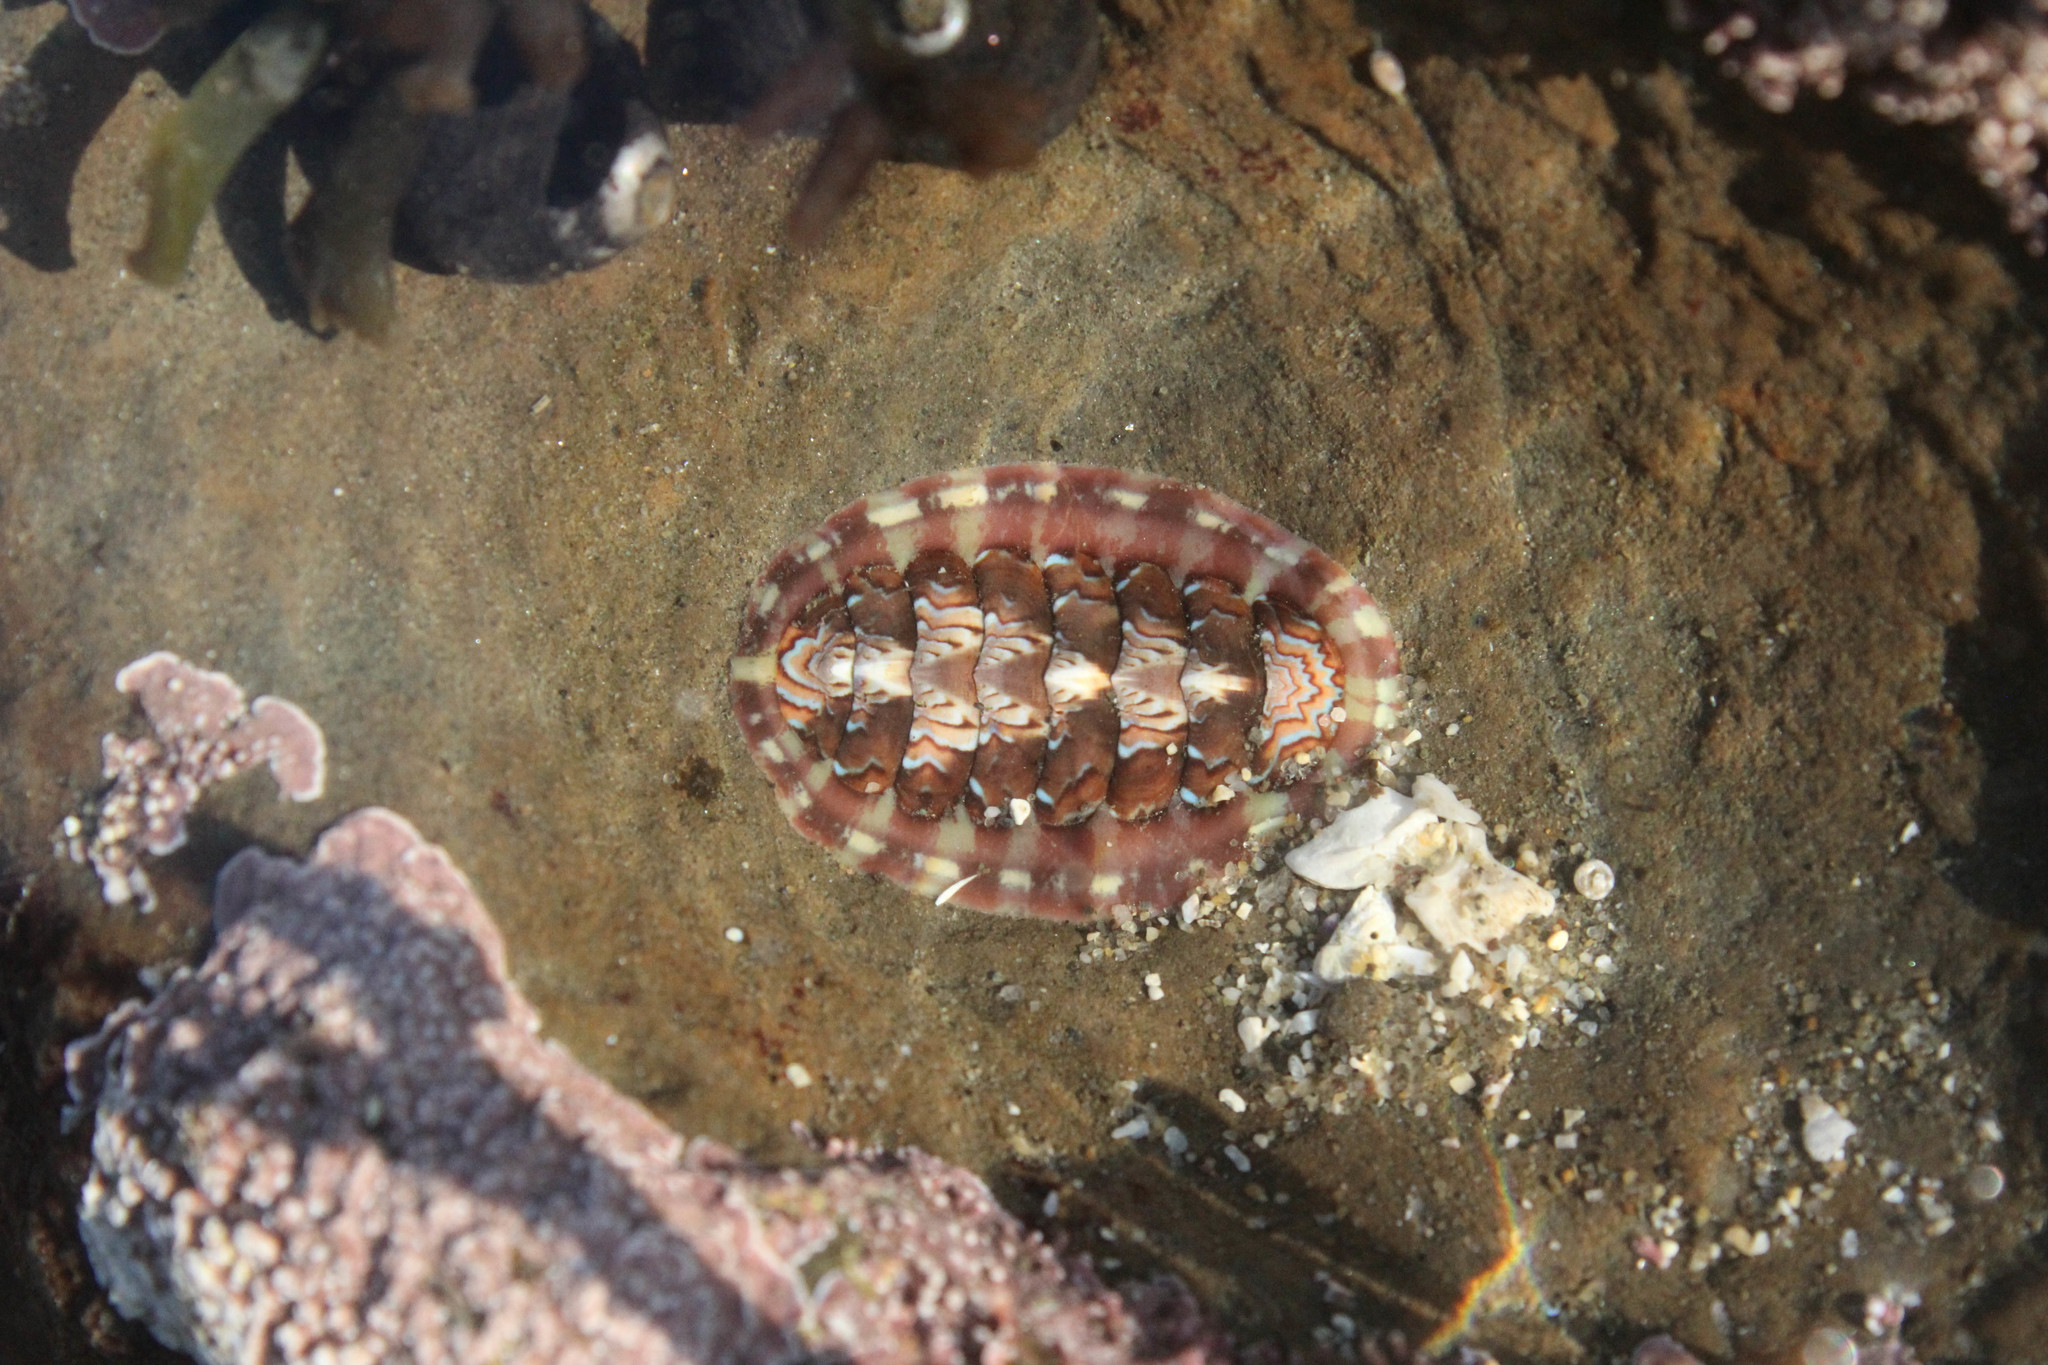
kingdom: Animalia
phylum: Mollusca
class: Polyplacophora
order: Chitonida
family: Tonicellidae
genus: Tonicella
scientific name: Tonicella lineata
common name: Lined chiton
